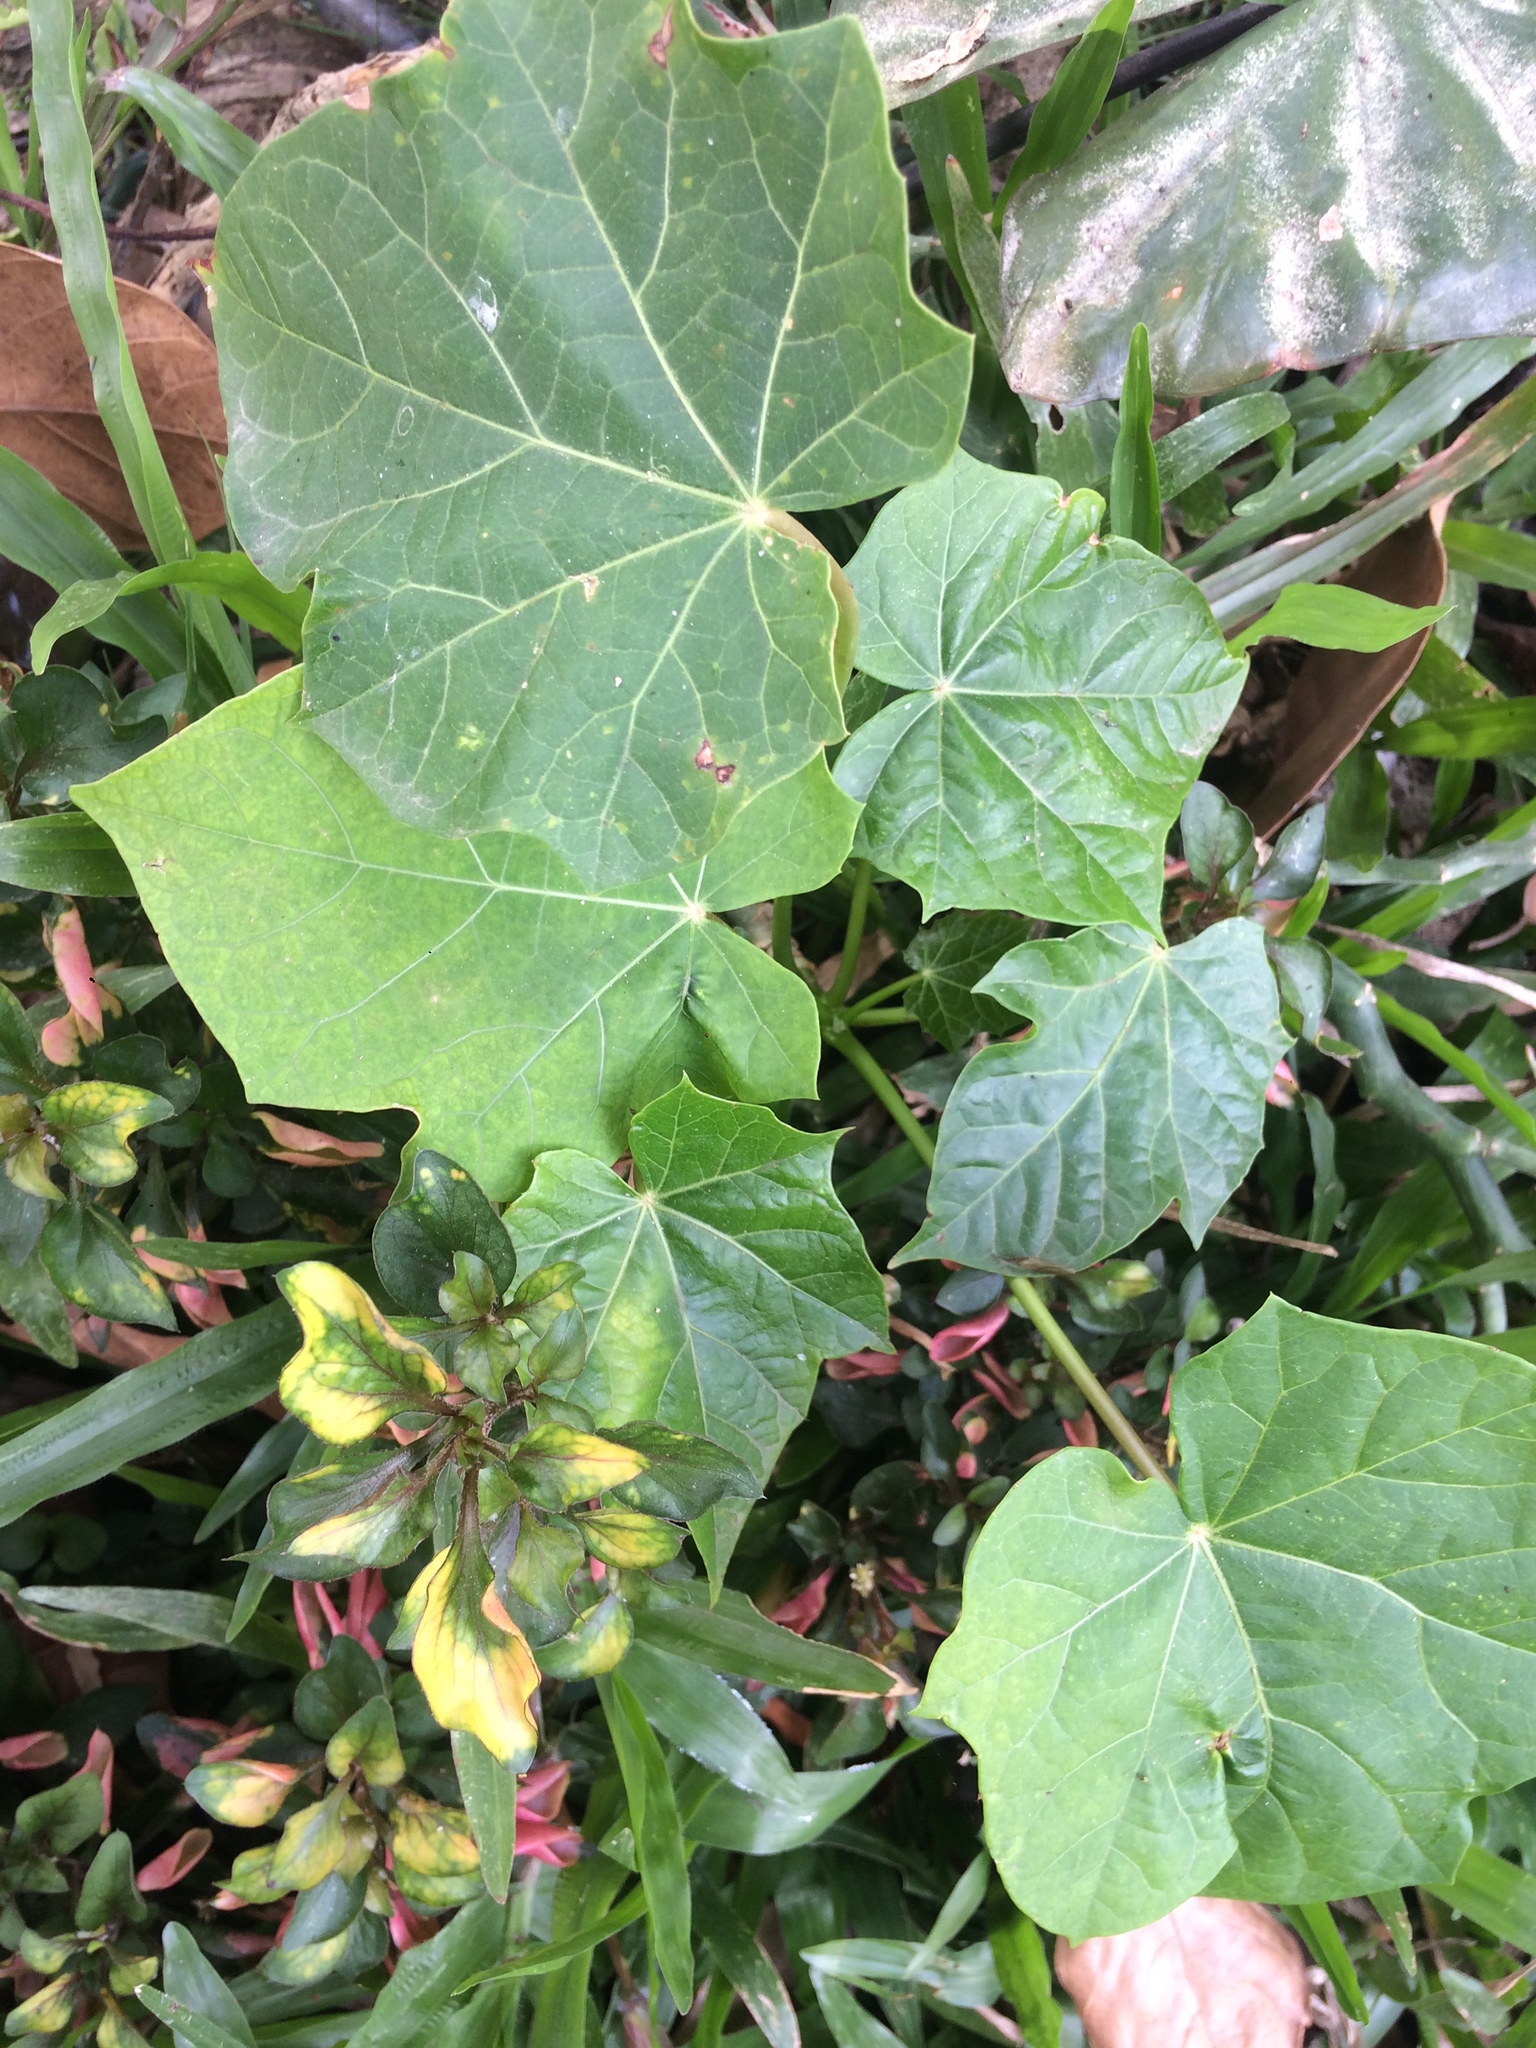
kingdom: Plantae
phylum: Tracheophyta
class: Magnoliopsida
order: Malpighiales
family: Euphorbiaceae
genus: Jatropha
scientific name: Jatropha curcas
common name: Barbados nut
